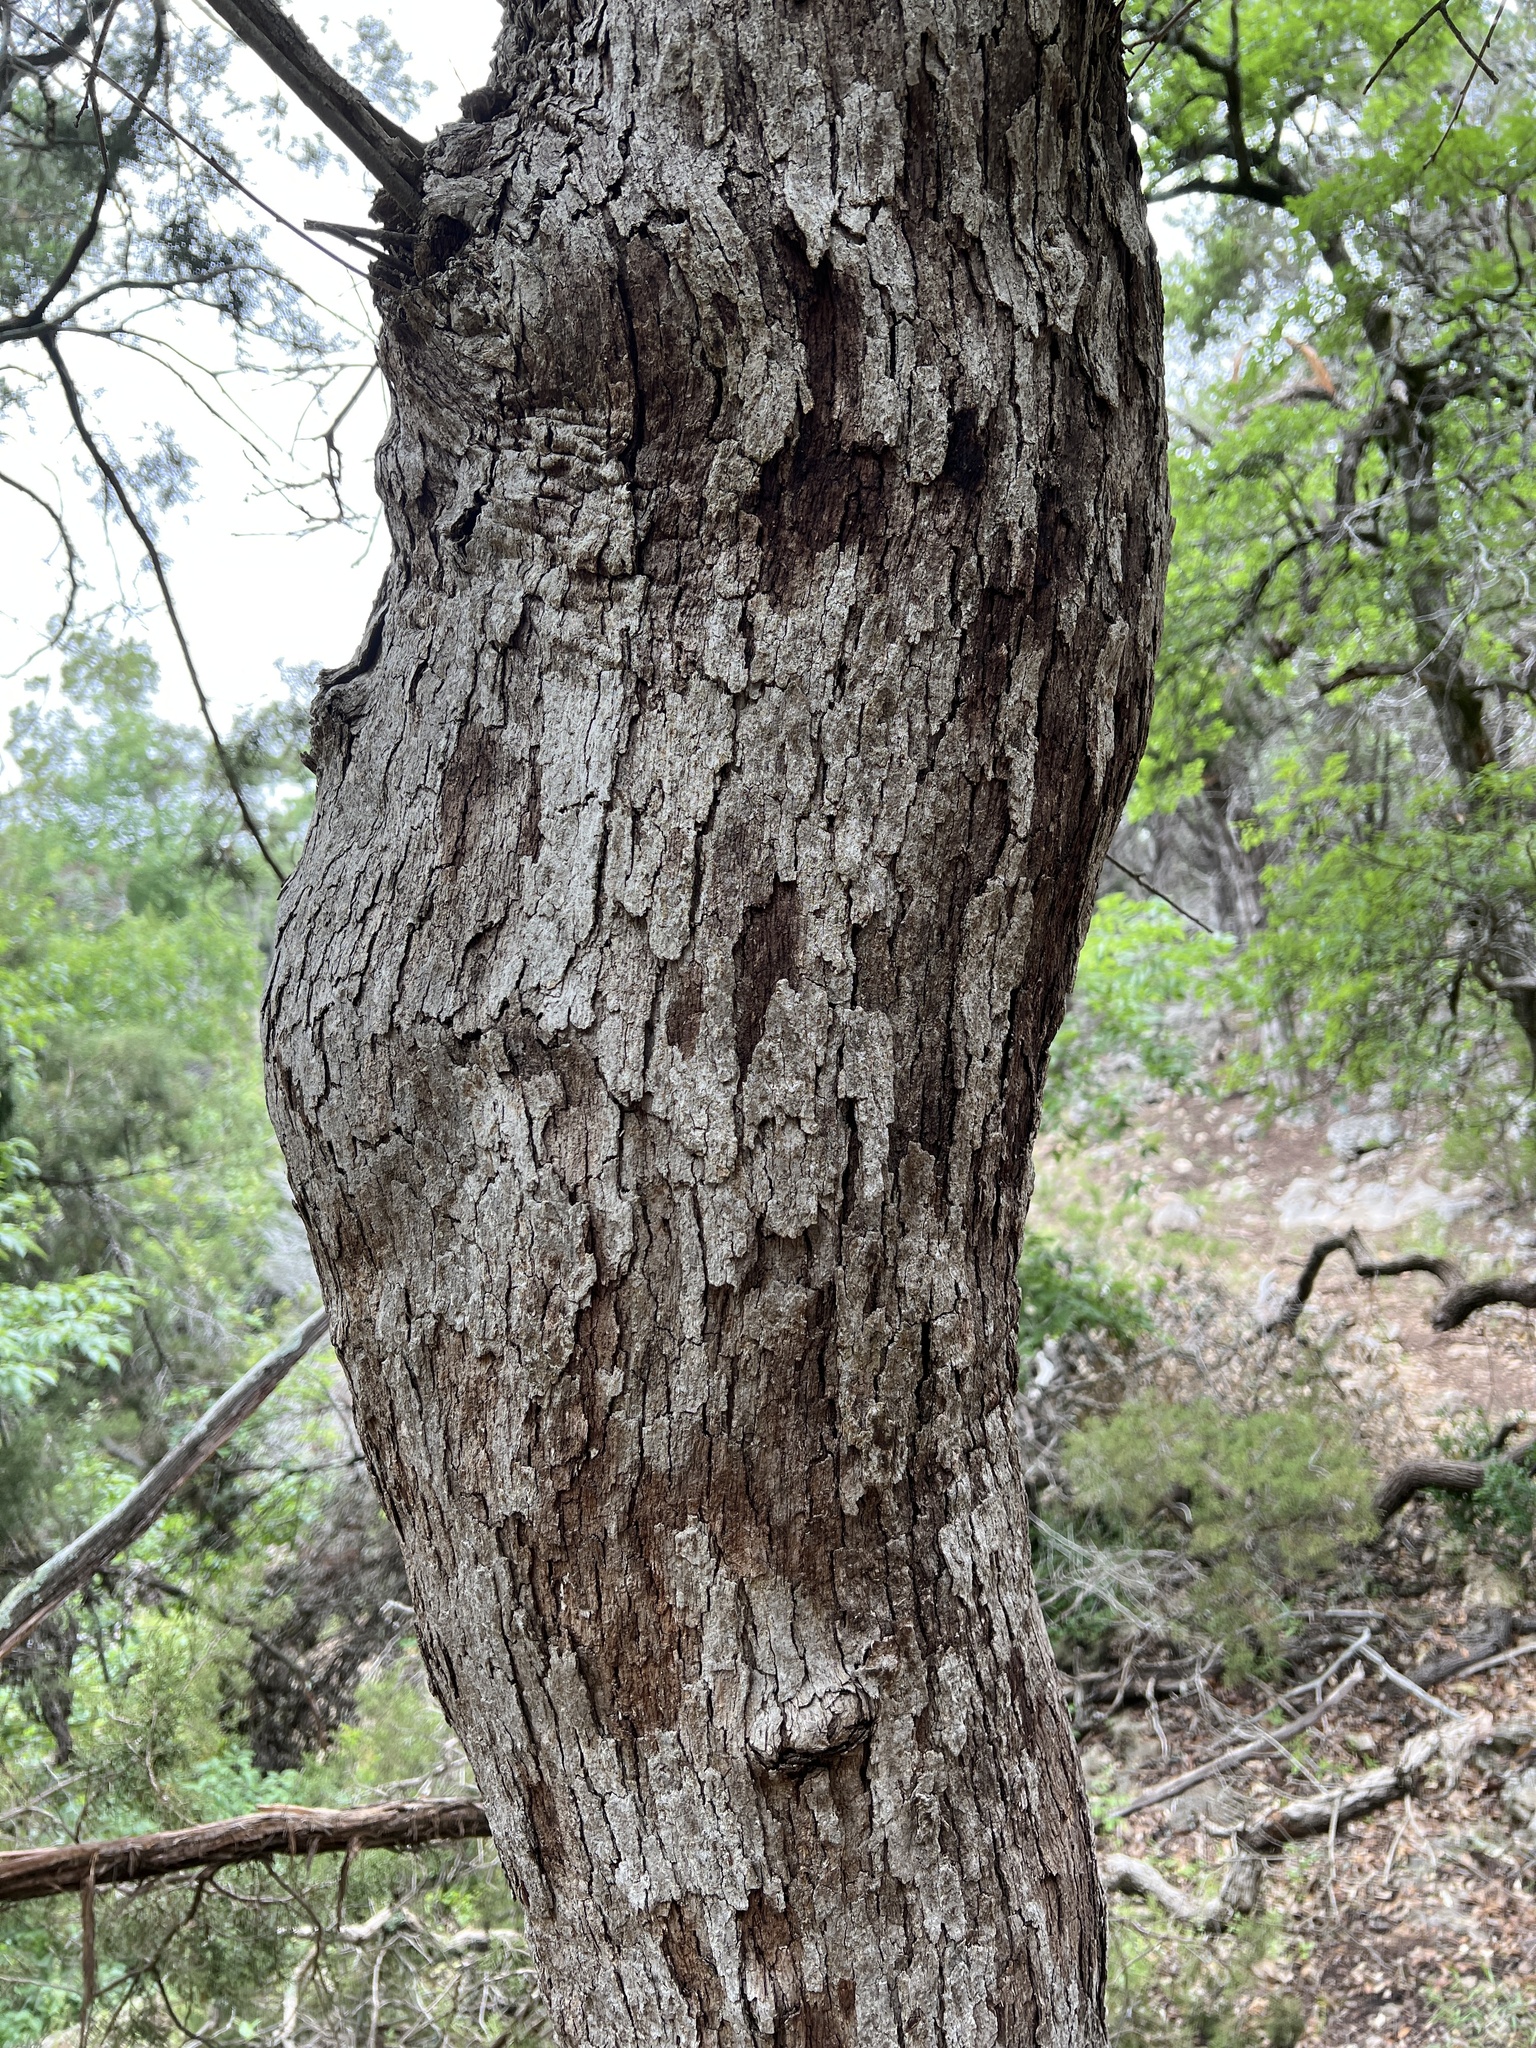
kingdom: Plantae
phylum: Tracheophyta
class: Magnoliopsida
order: Fagales
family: Fagaceae
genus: Quercus
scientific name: Quercus sinuata
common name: Durand oak
